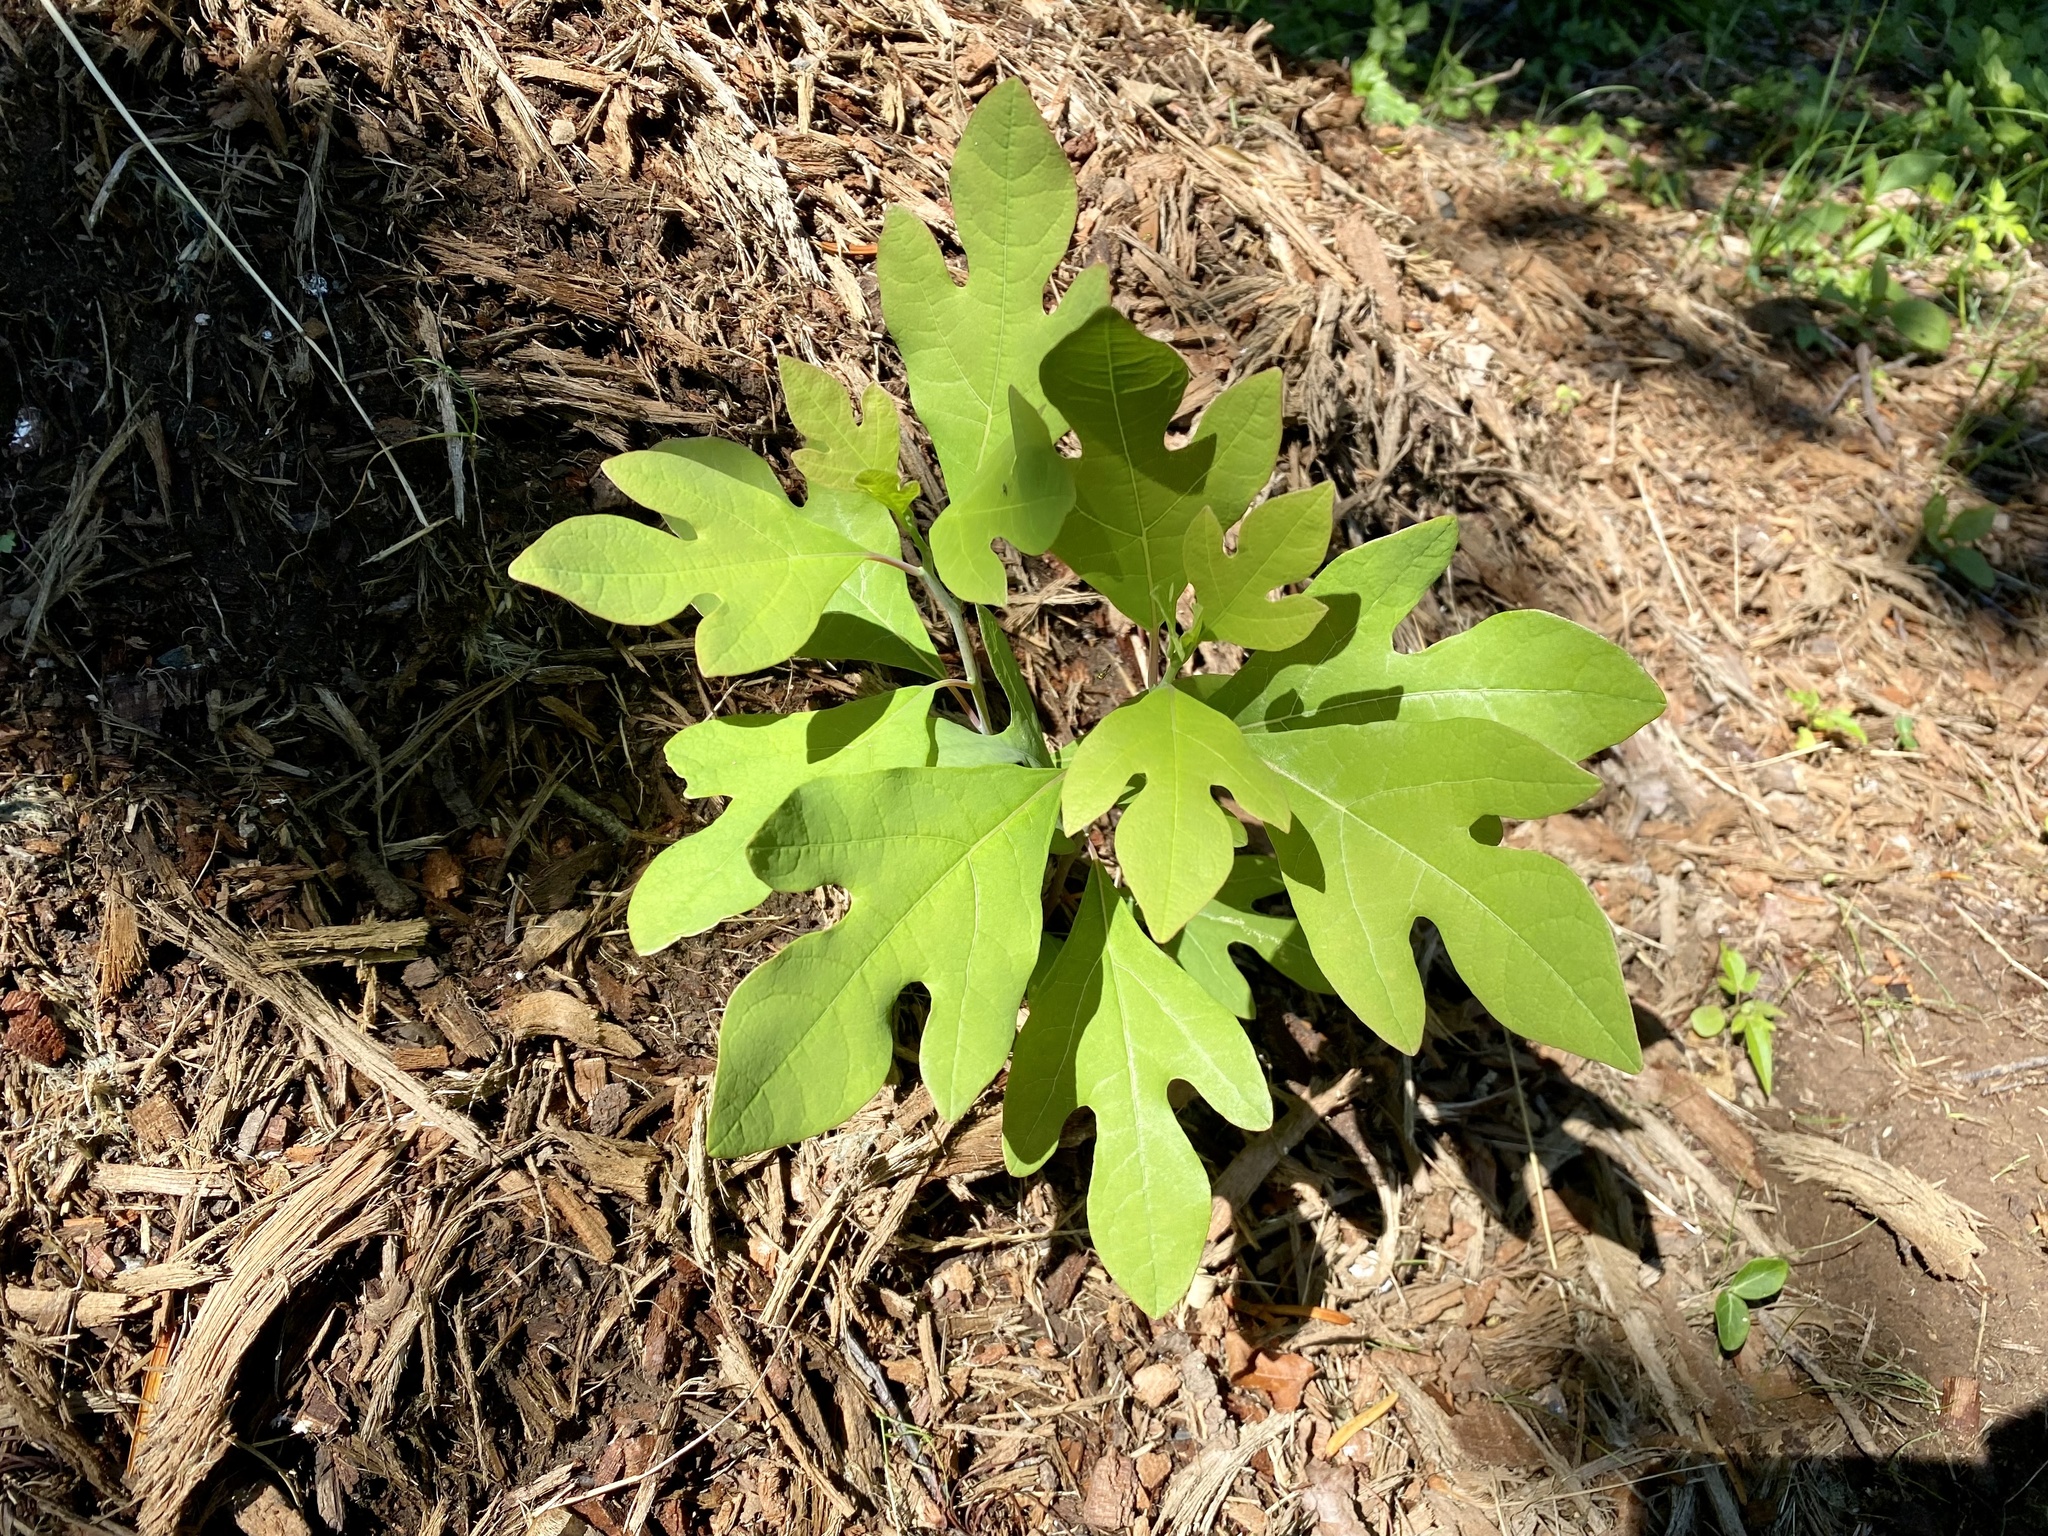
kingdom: Plantae
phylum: Tracheophyta
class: Magnoliopsida
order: Laurales
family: Lauraceae
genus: Sassafras
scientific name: Sassafras albidum
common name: Sassafras
